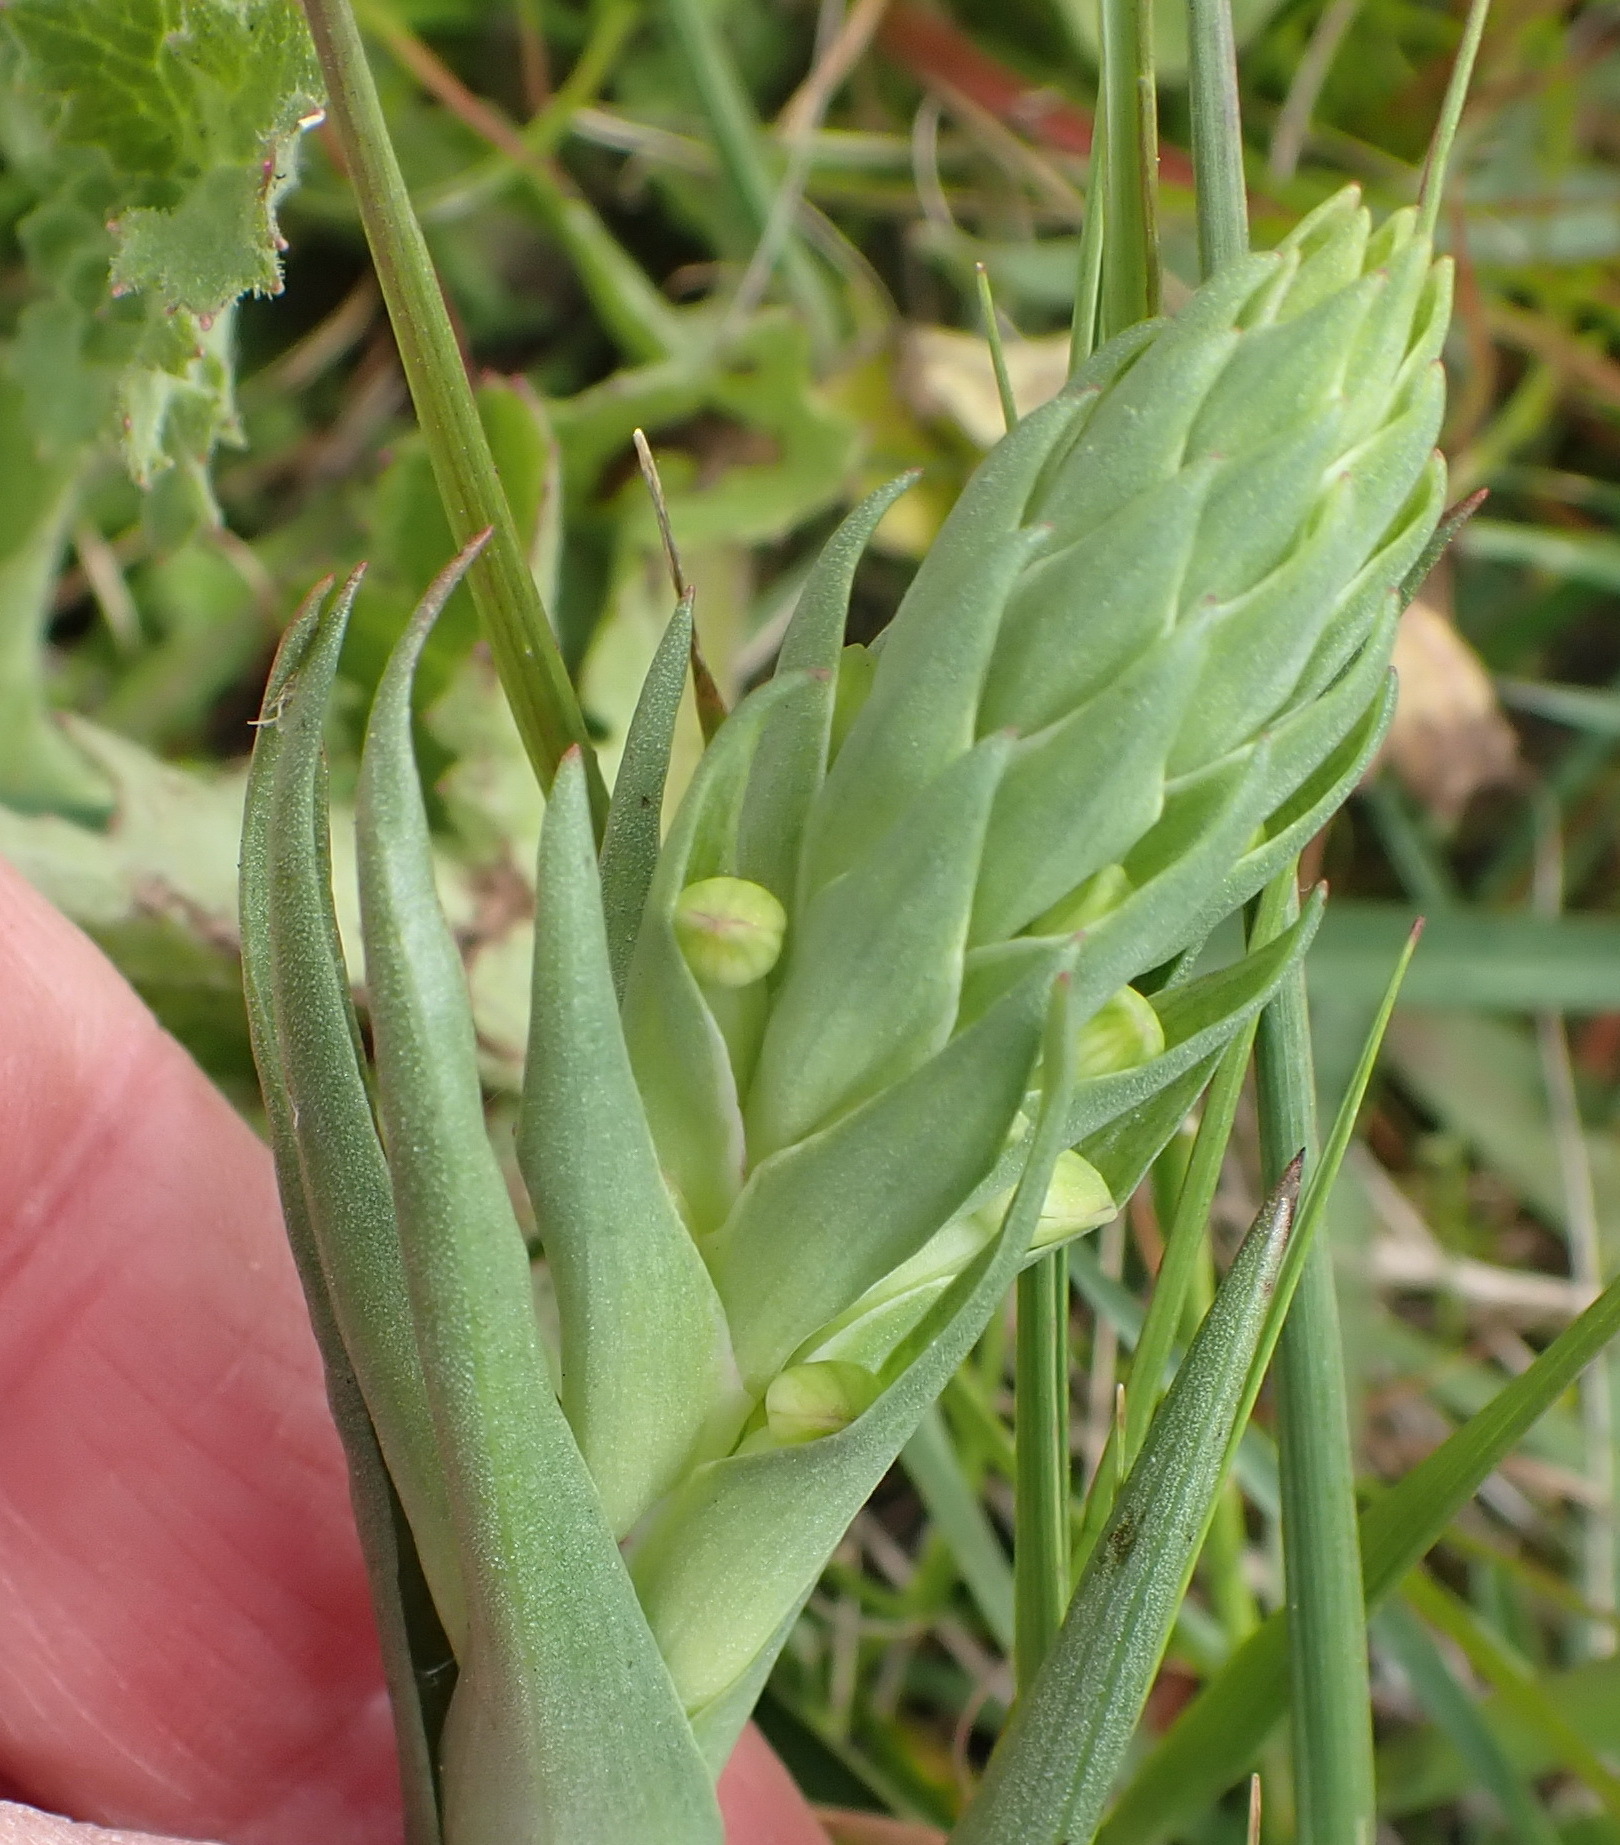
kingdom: Plantae
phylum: Tracheophyta
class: Liliopsida
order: Asparagales
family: Orchidaceae
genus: Disa
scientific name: Disa bracteata
